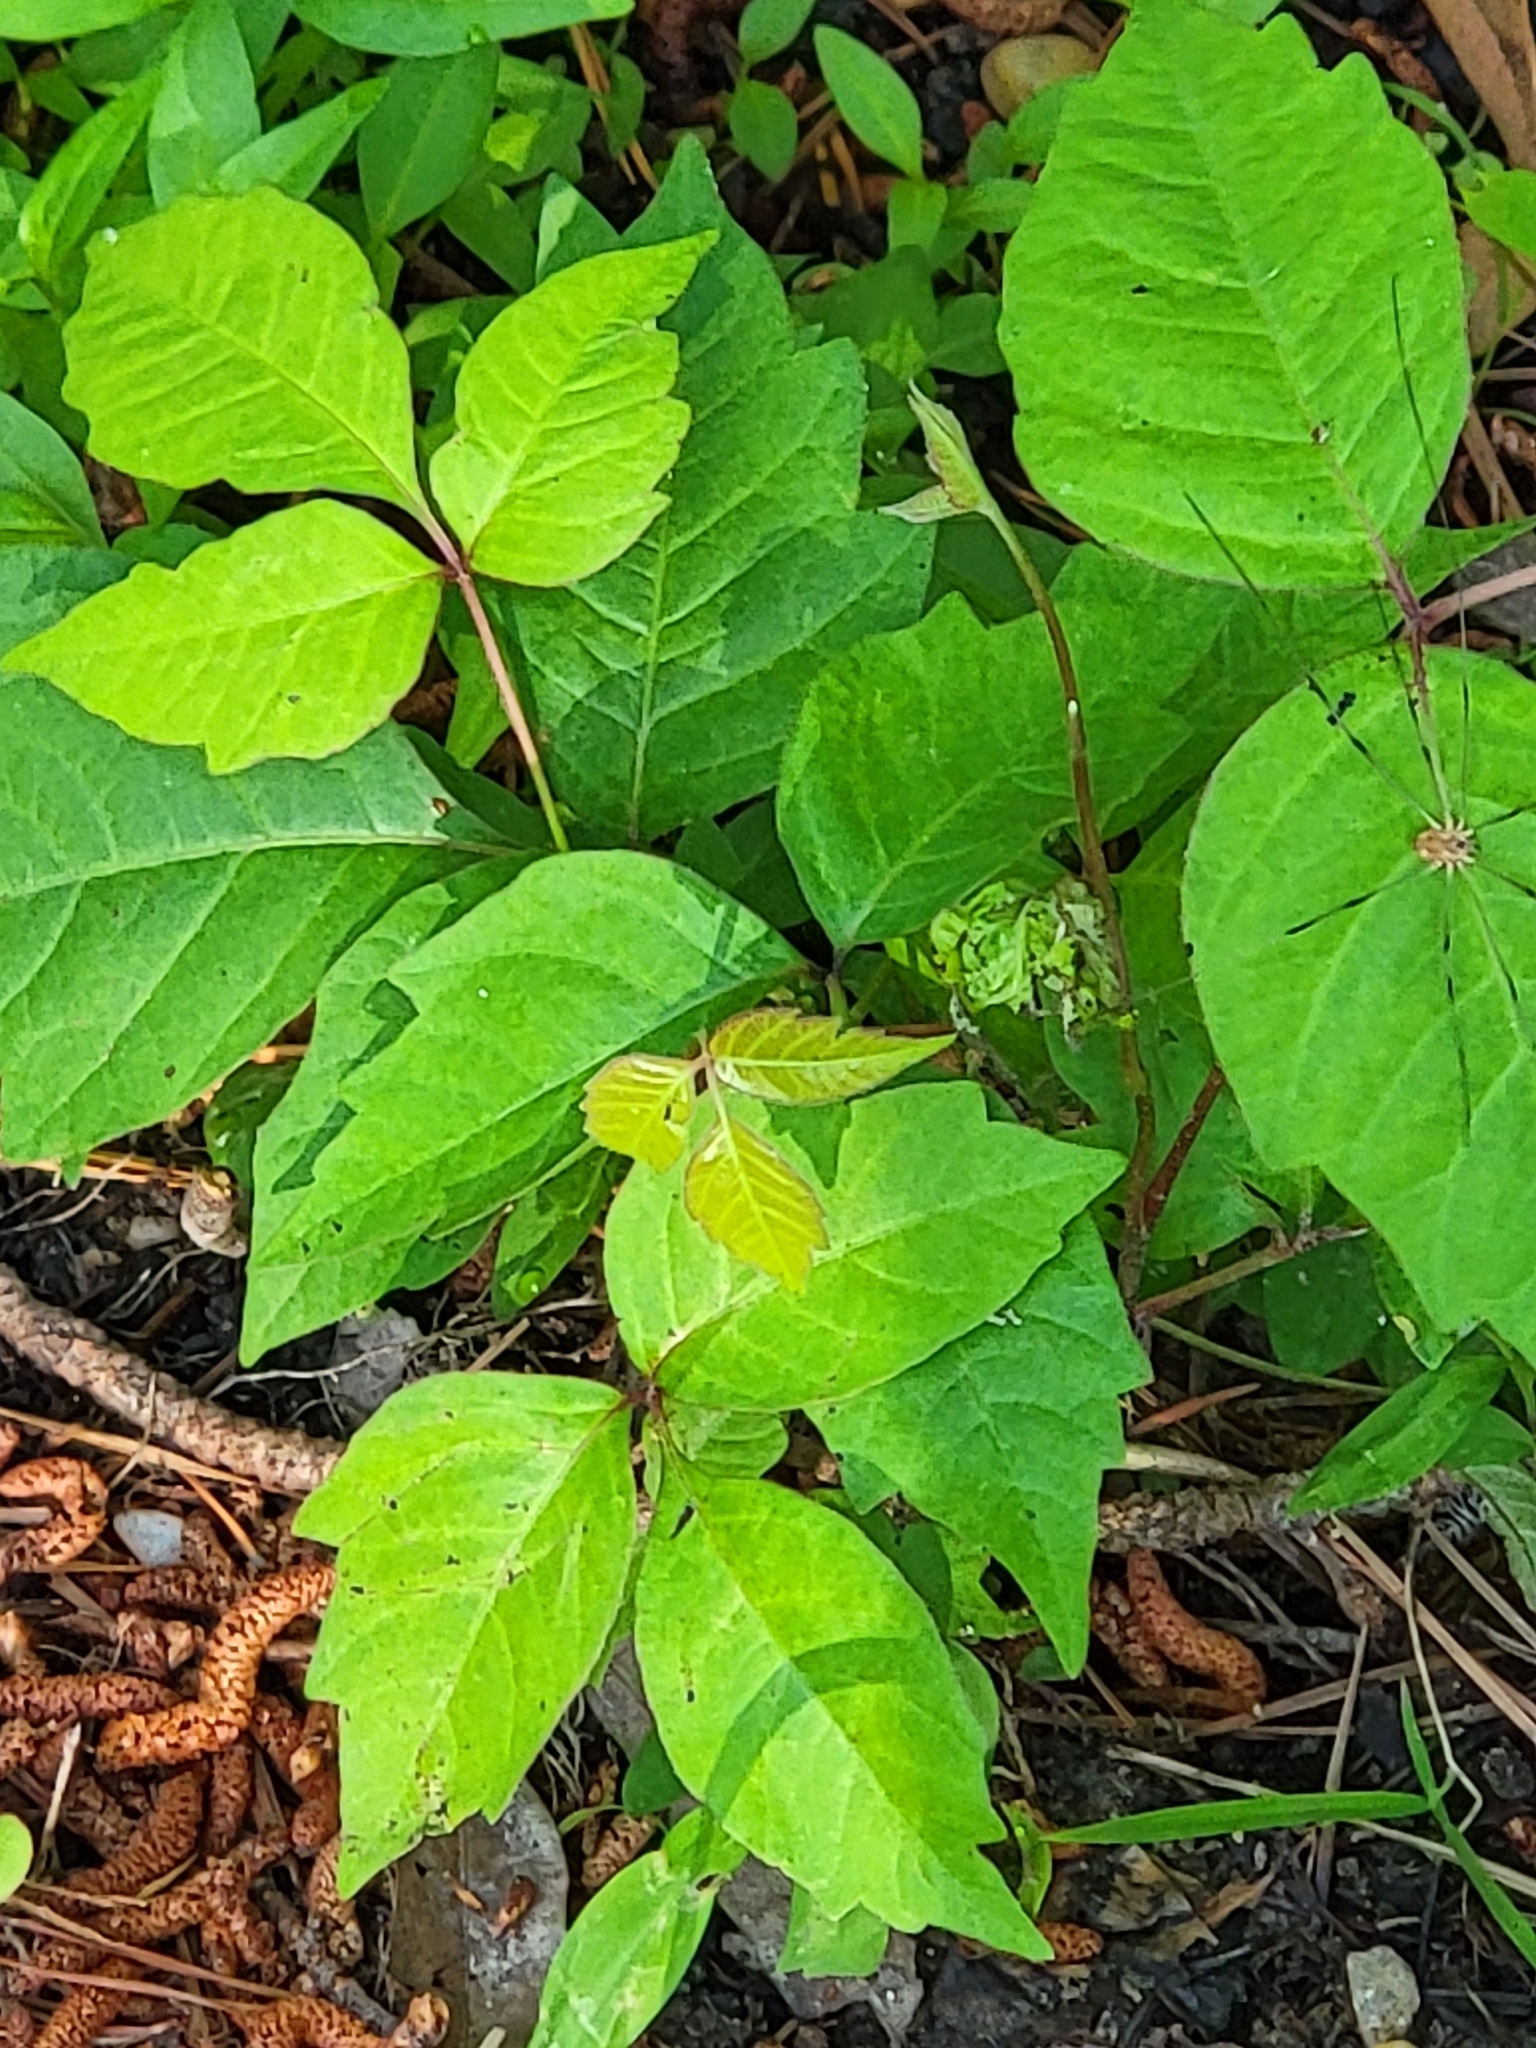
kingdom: Plantae
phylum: Tracheophyta
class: Magnoliopsida
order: Sapindales
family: Anacardiaceae
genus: Toxicodendron
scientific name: Toxicodendron radicans
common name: Poison ivy
